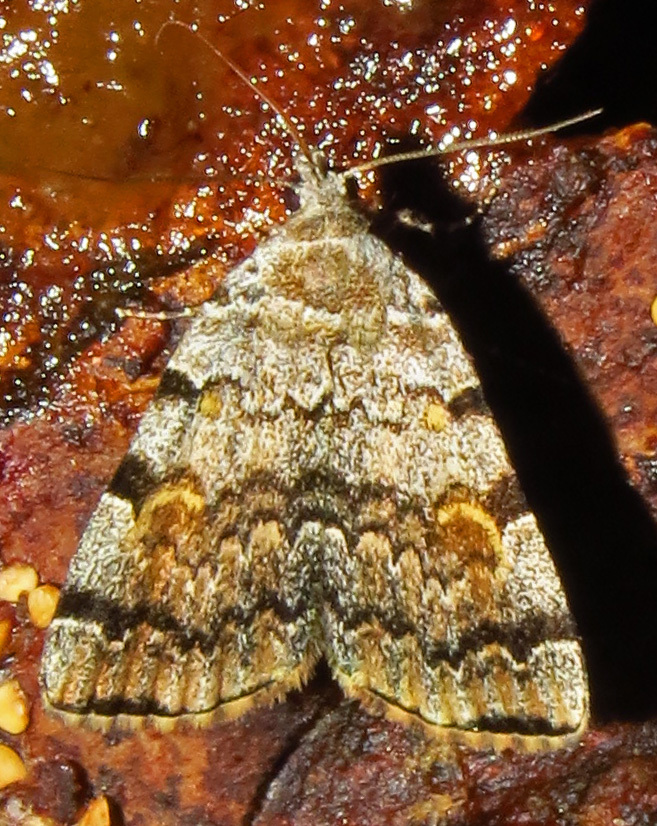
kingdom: Animalia
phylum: Arthropoda
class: Insecta
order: Lepidoptera
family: Erebidae
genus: Idia
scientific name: Idia americalis
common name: American idia moth
